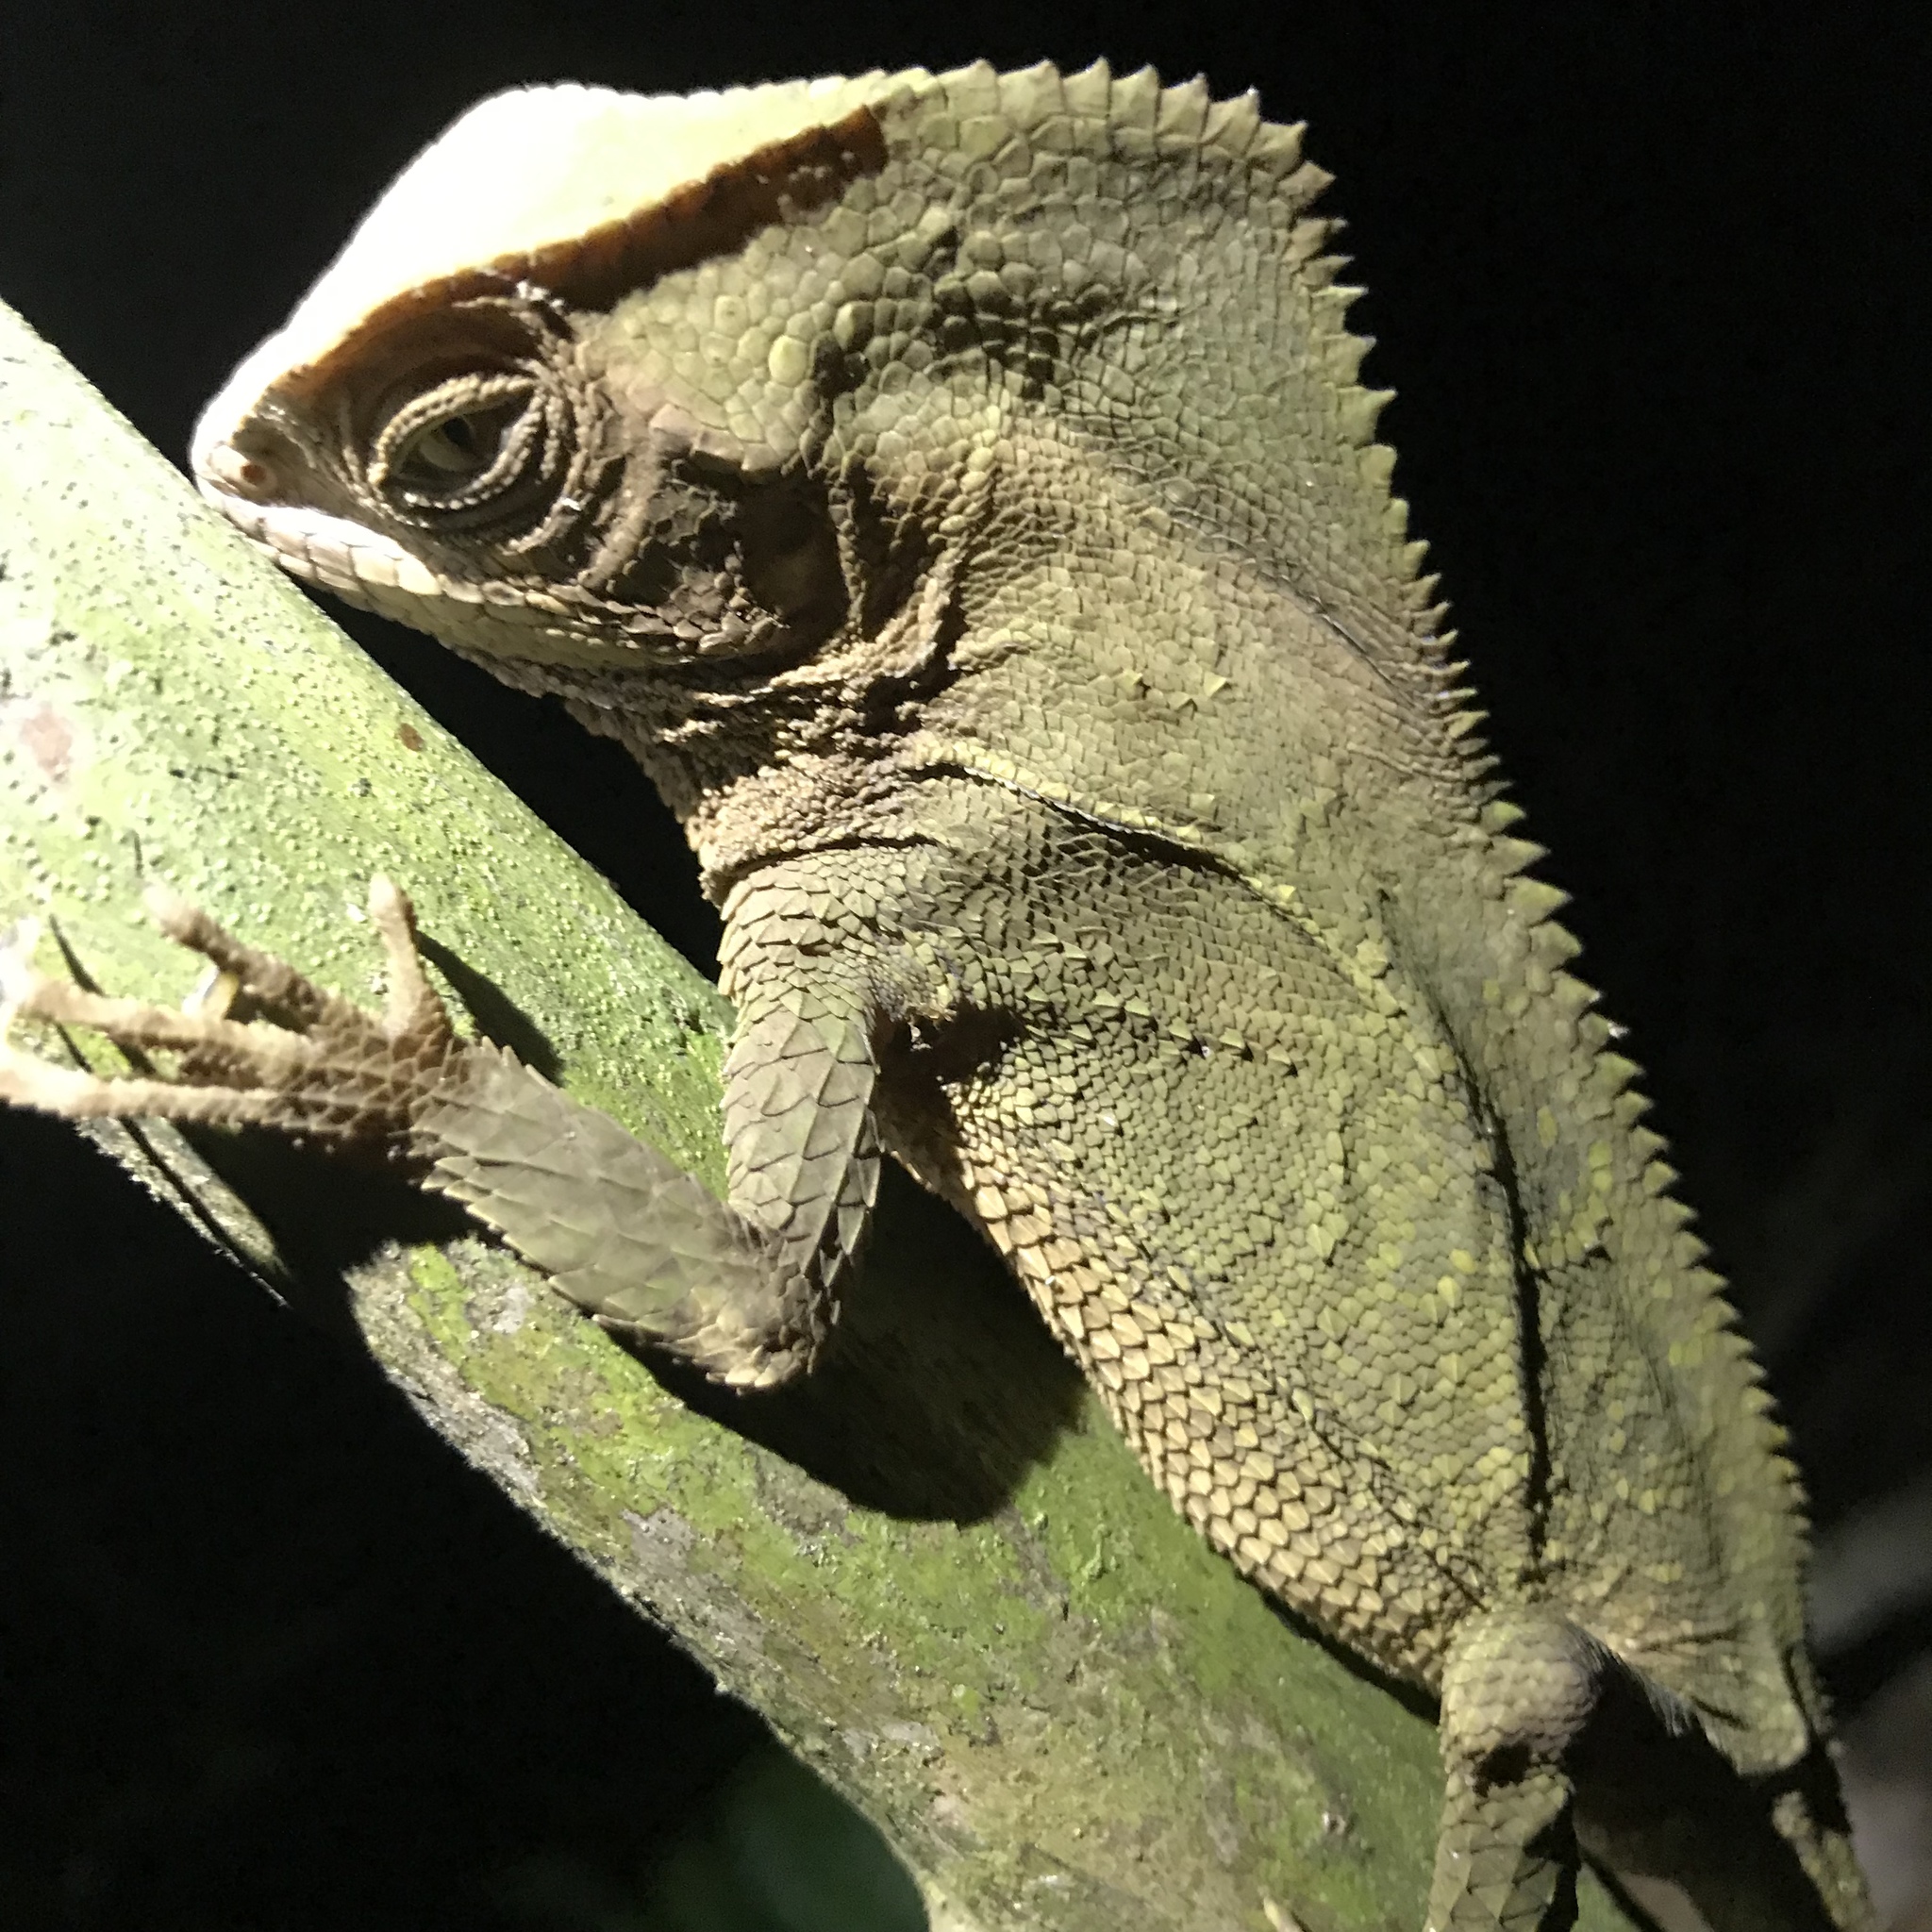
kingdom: Animalia
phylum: Chordata
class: Squamata
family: Corytophanidae
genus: Corytophanes
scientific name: Corytophanes cristatus
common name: Smooth helmeted iguana
